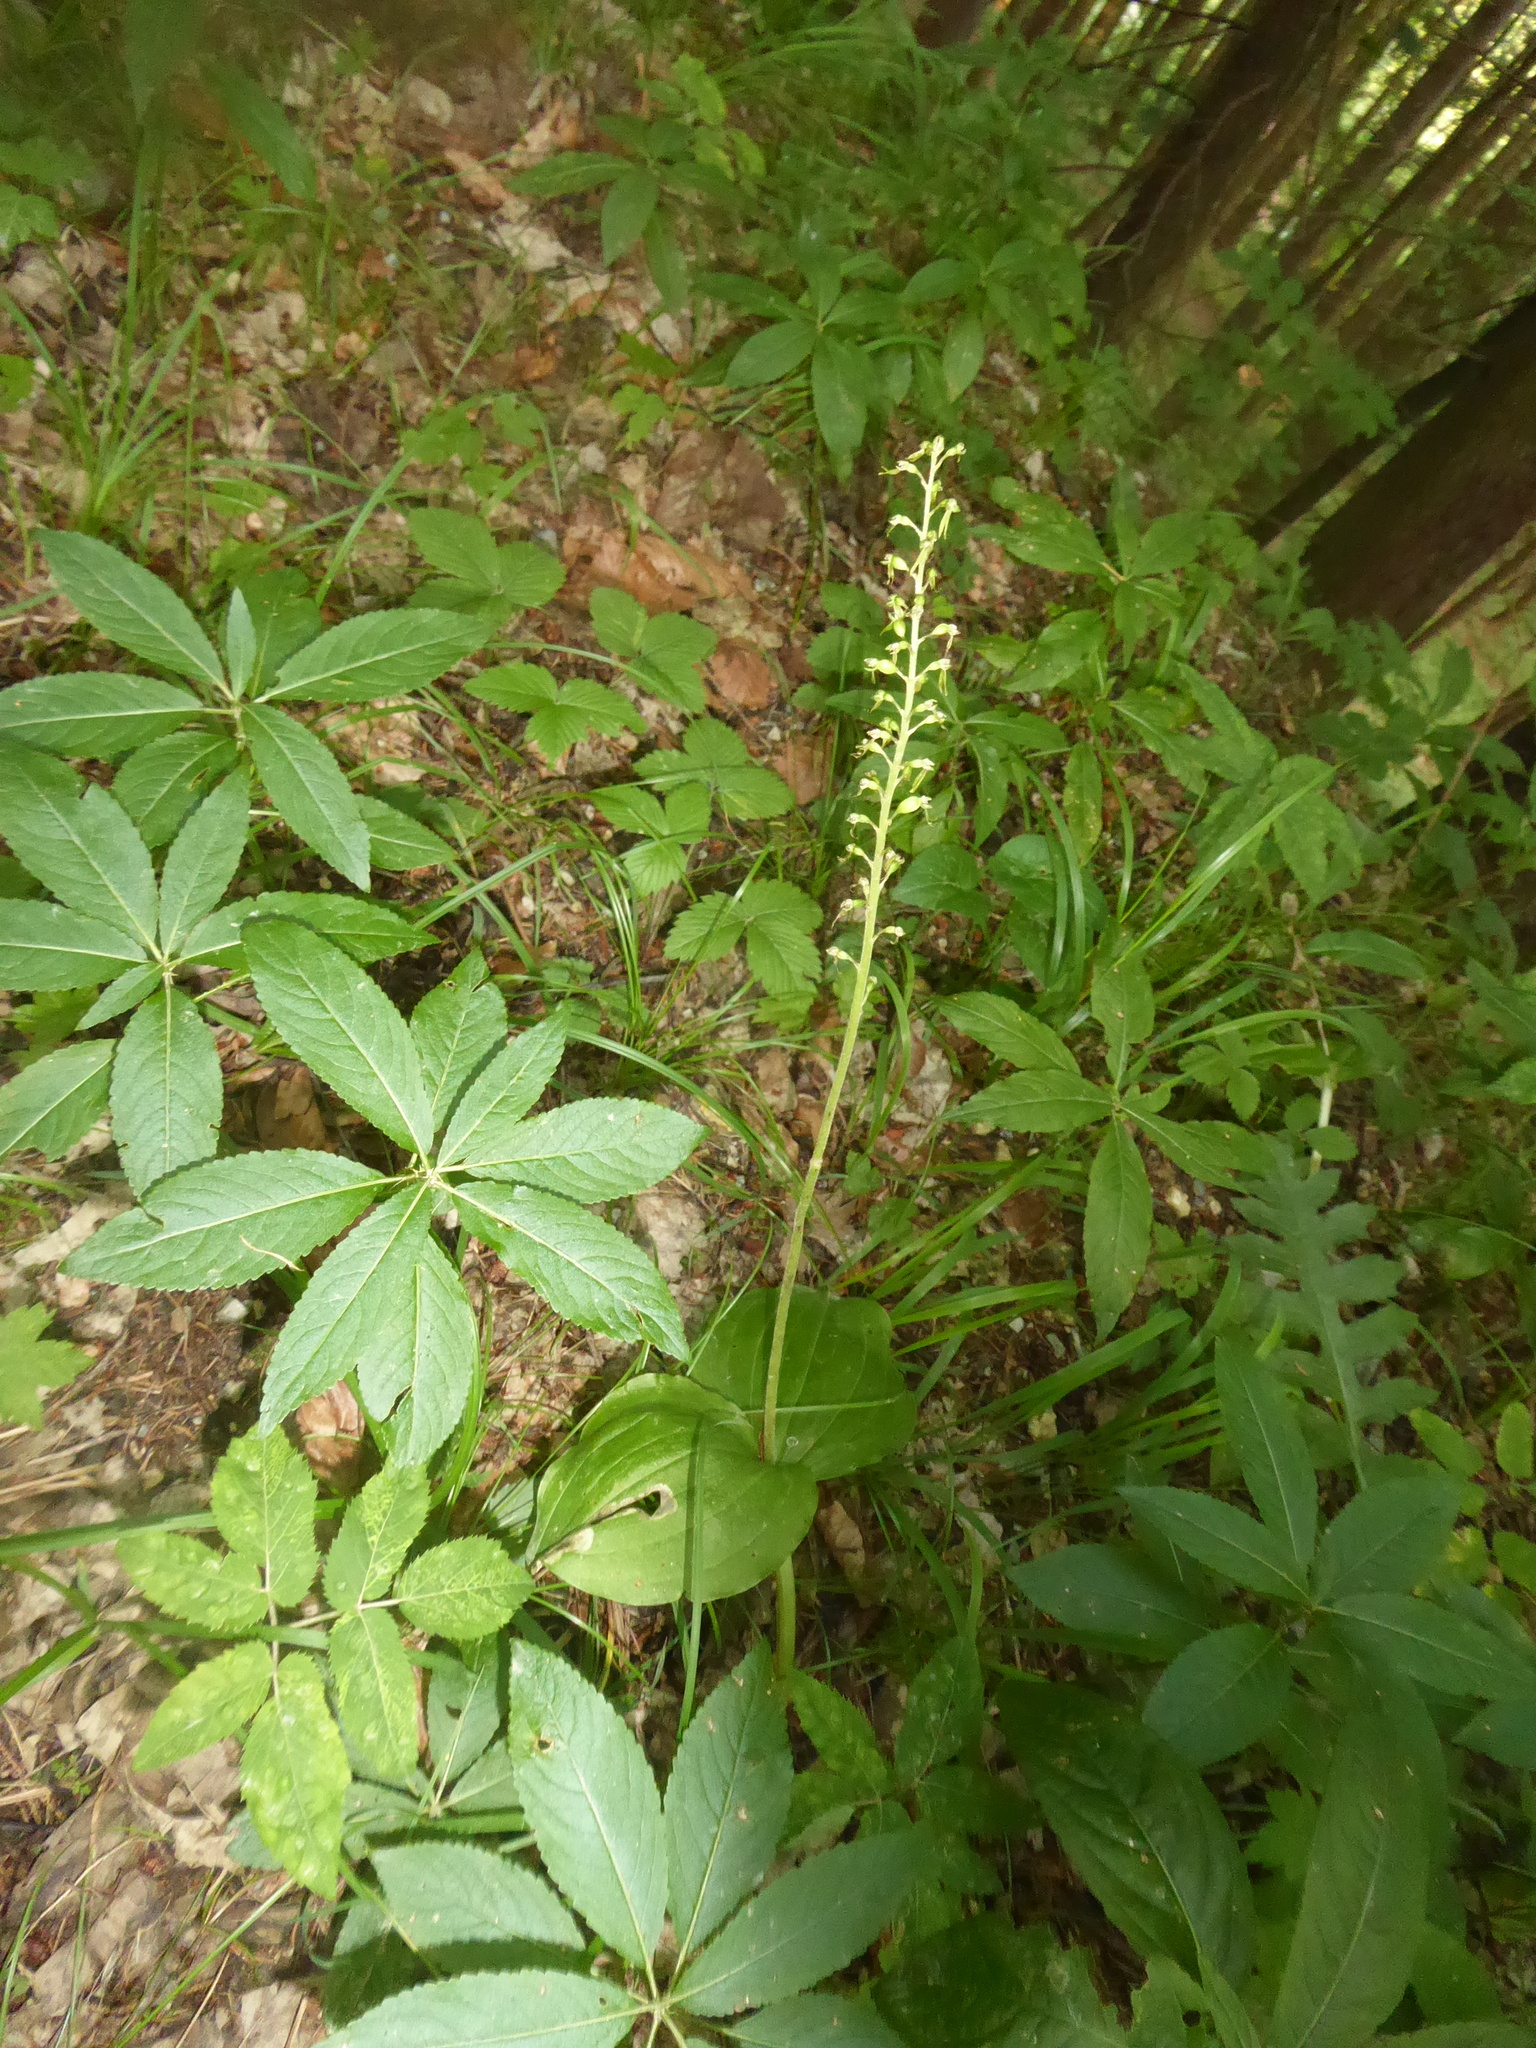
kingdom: Plantae
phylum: Tracheophyta
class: Liliopsida
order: Asparagales
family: Orchidaceae
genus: Neottia
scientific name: Neottia ovata
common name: Common twayblade
